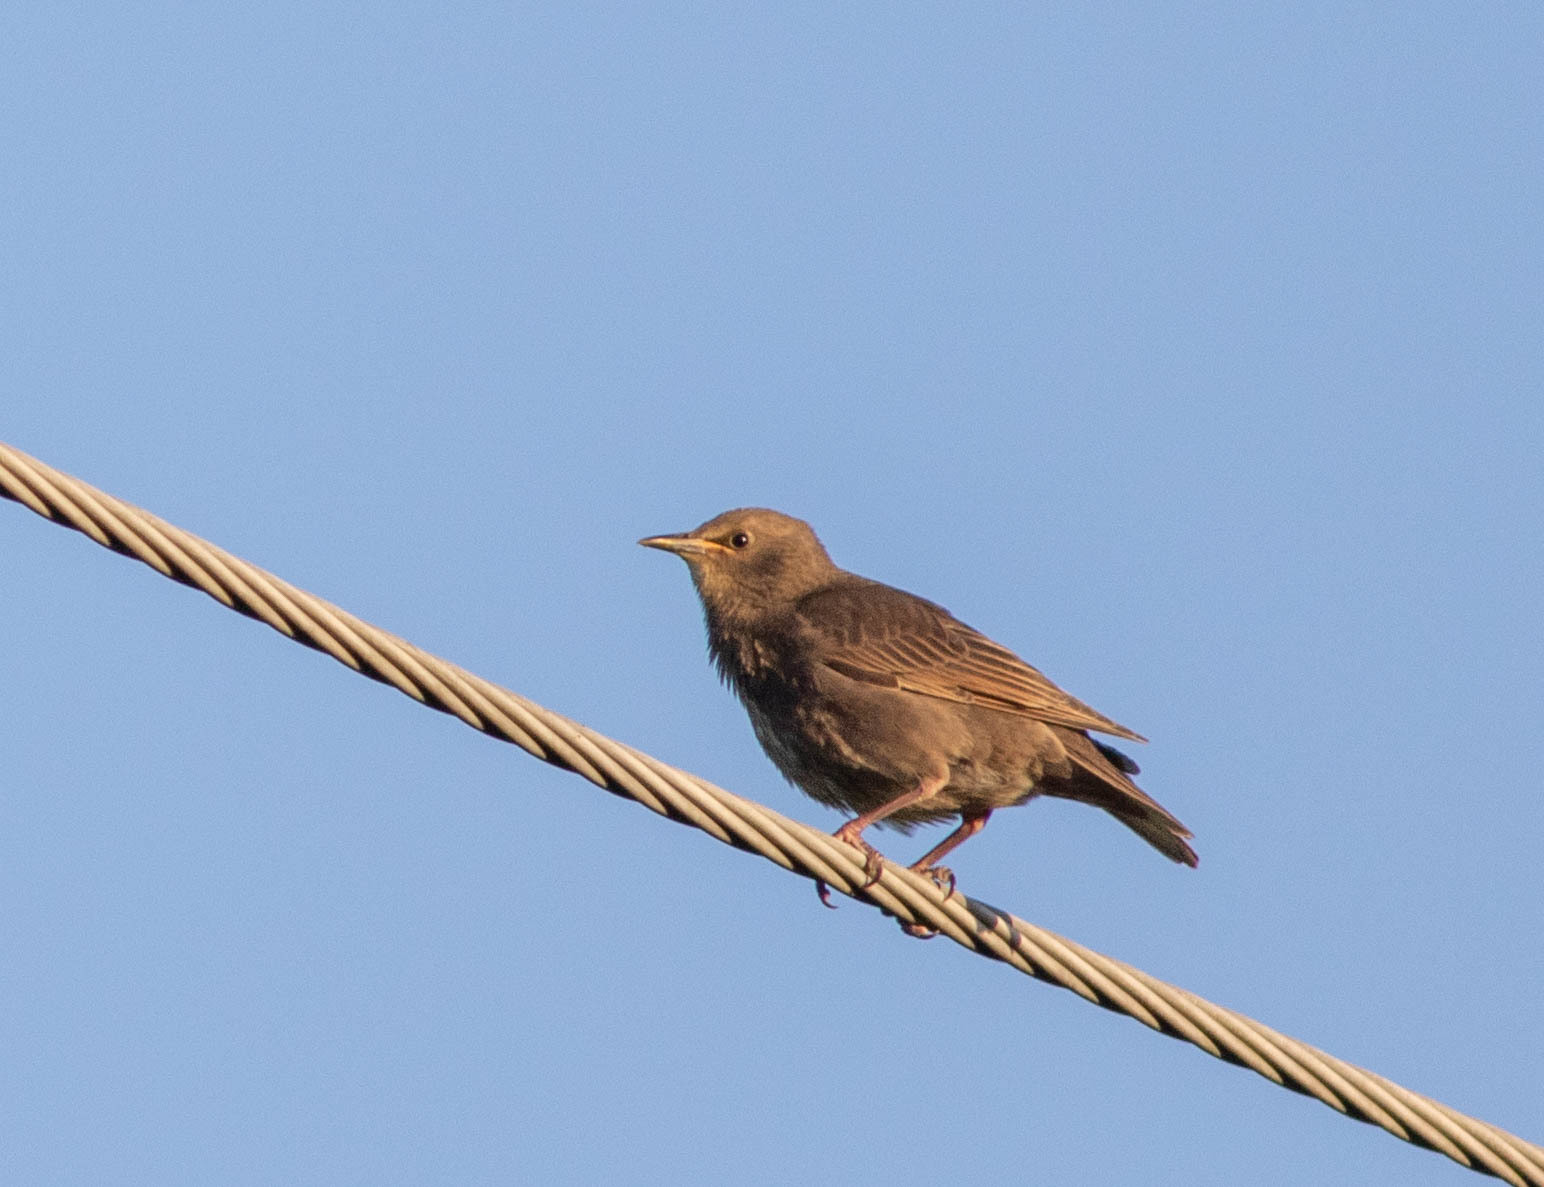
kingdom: Animalia
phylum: Chordata
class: Aves
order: Passeriformes
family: Sturnidae
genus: Sturnus
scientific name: Sturnus vulgaris
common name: Common starling
